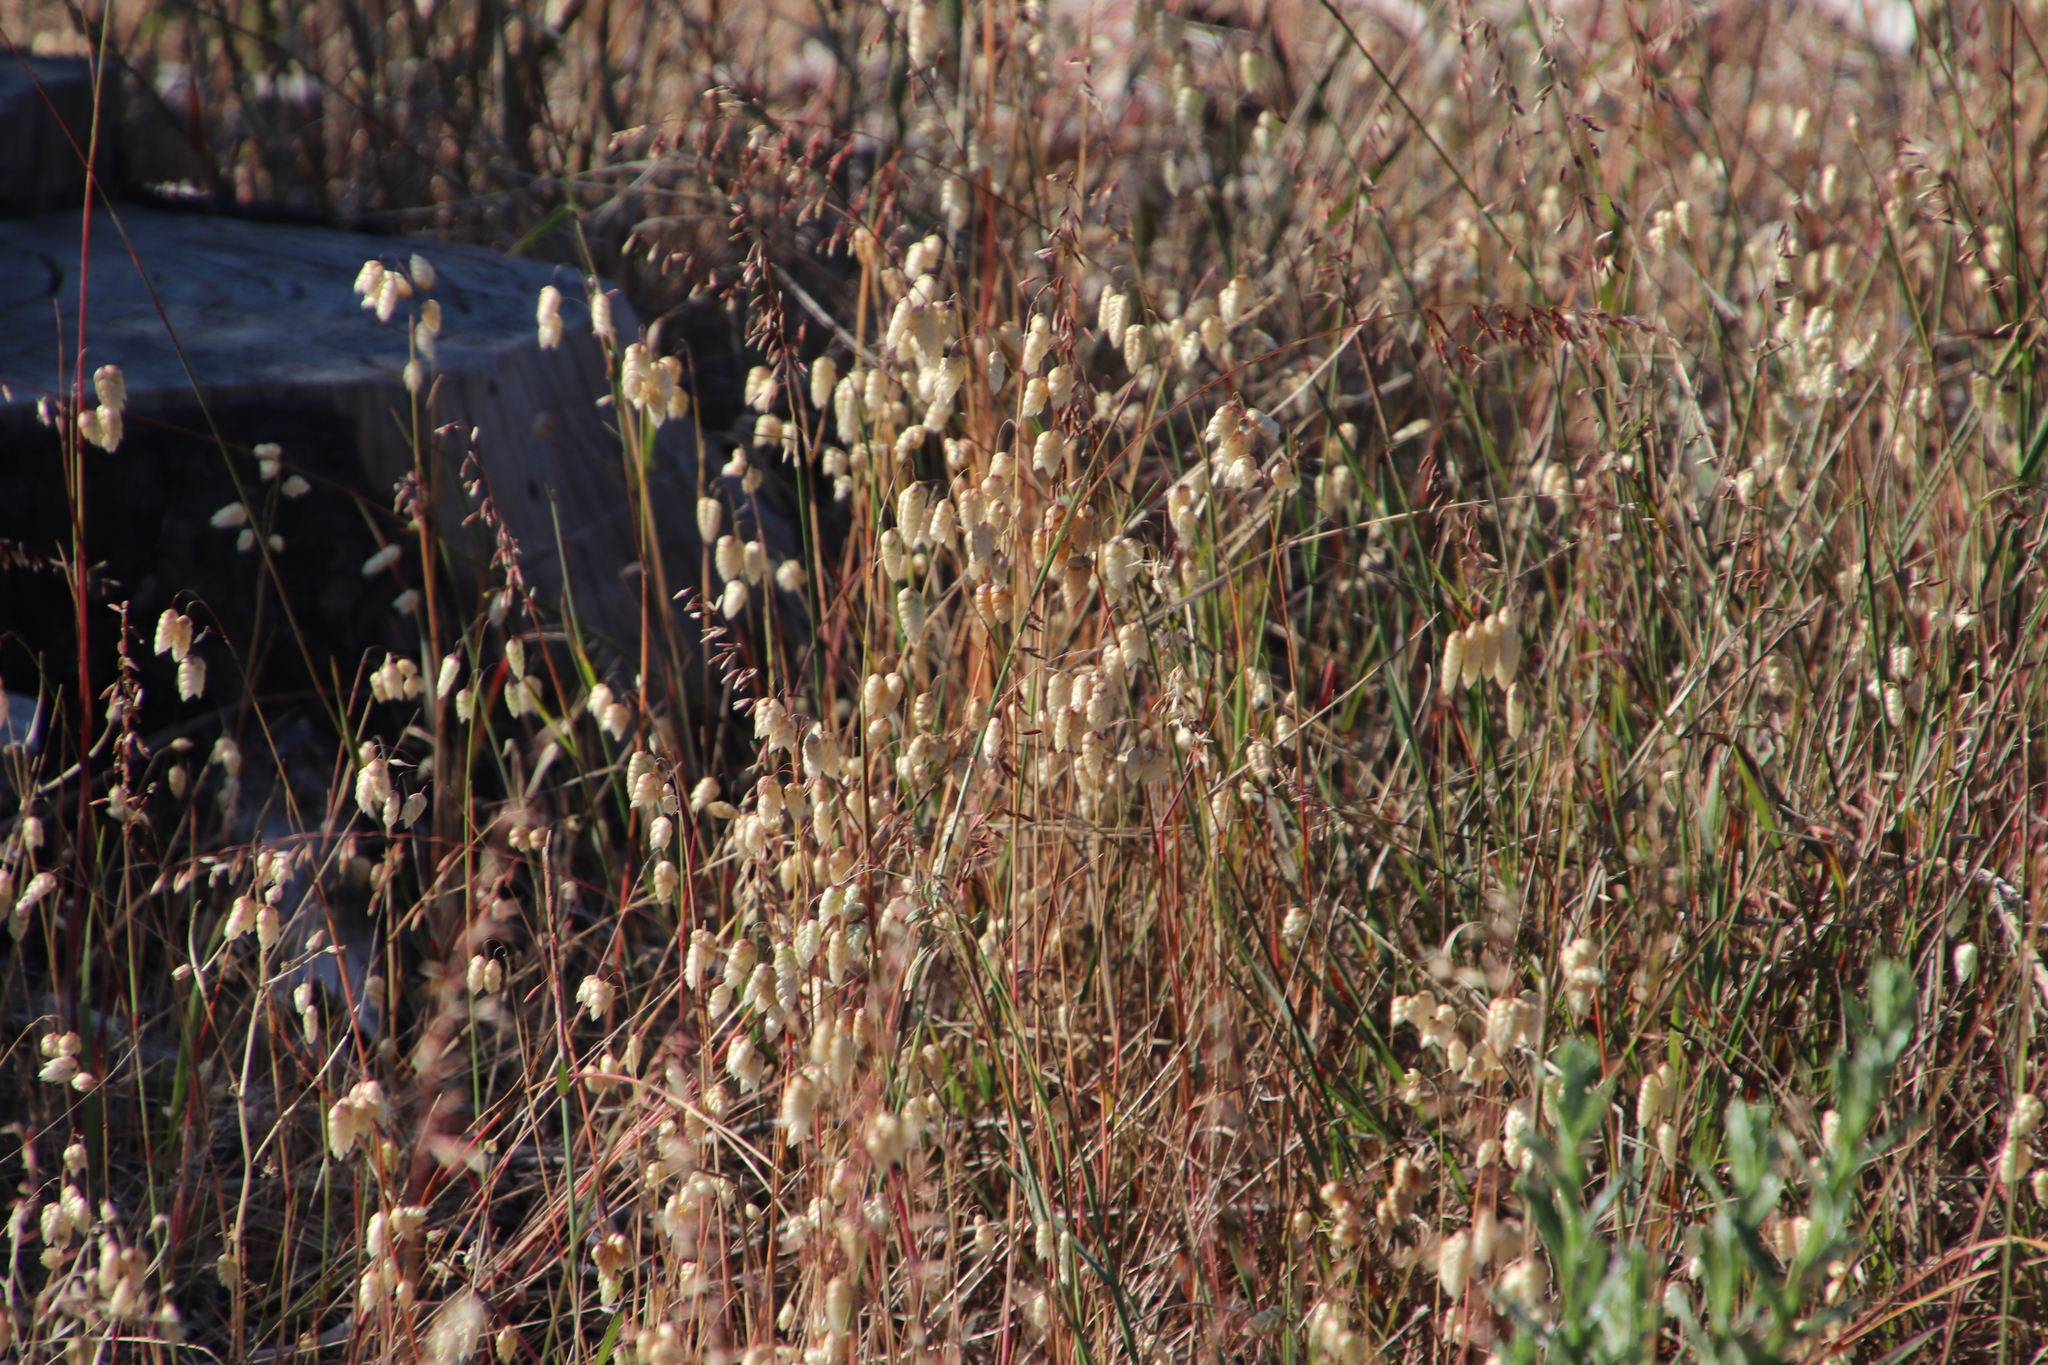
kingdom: Plantae
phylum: Tracheophyta
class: Liliopsida
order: Poales
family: Poaceae
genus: Briza
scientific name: Briza maxima
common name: Big quakinggrass
